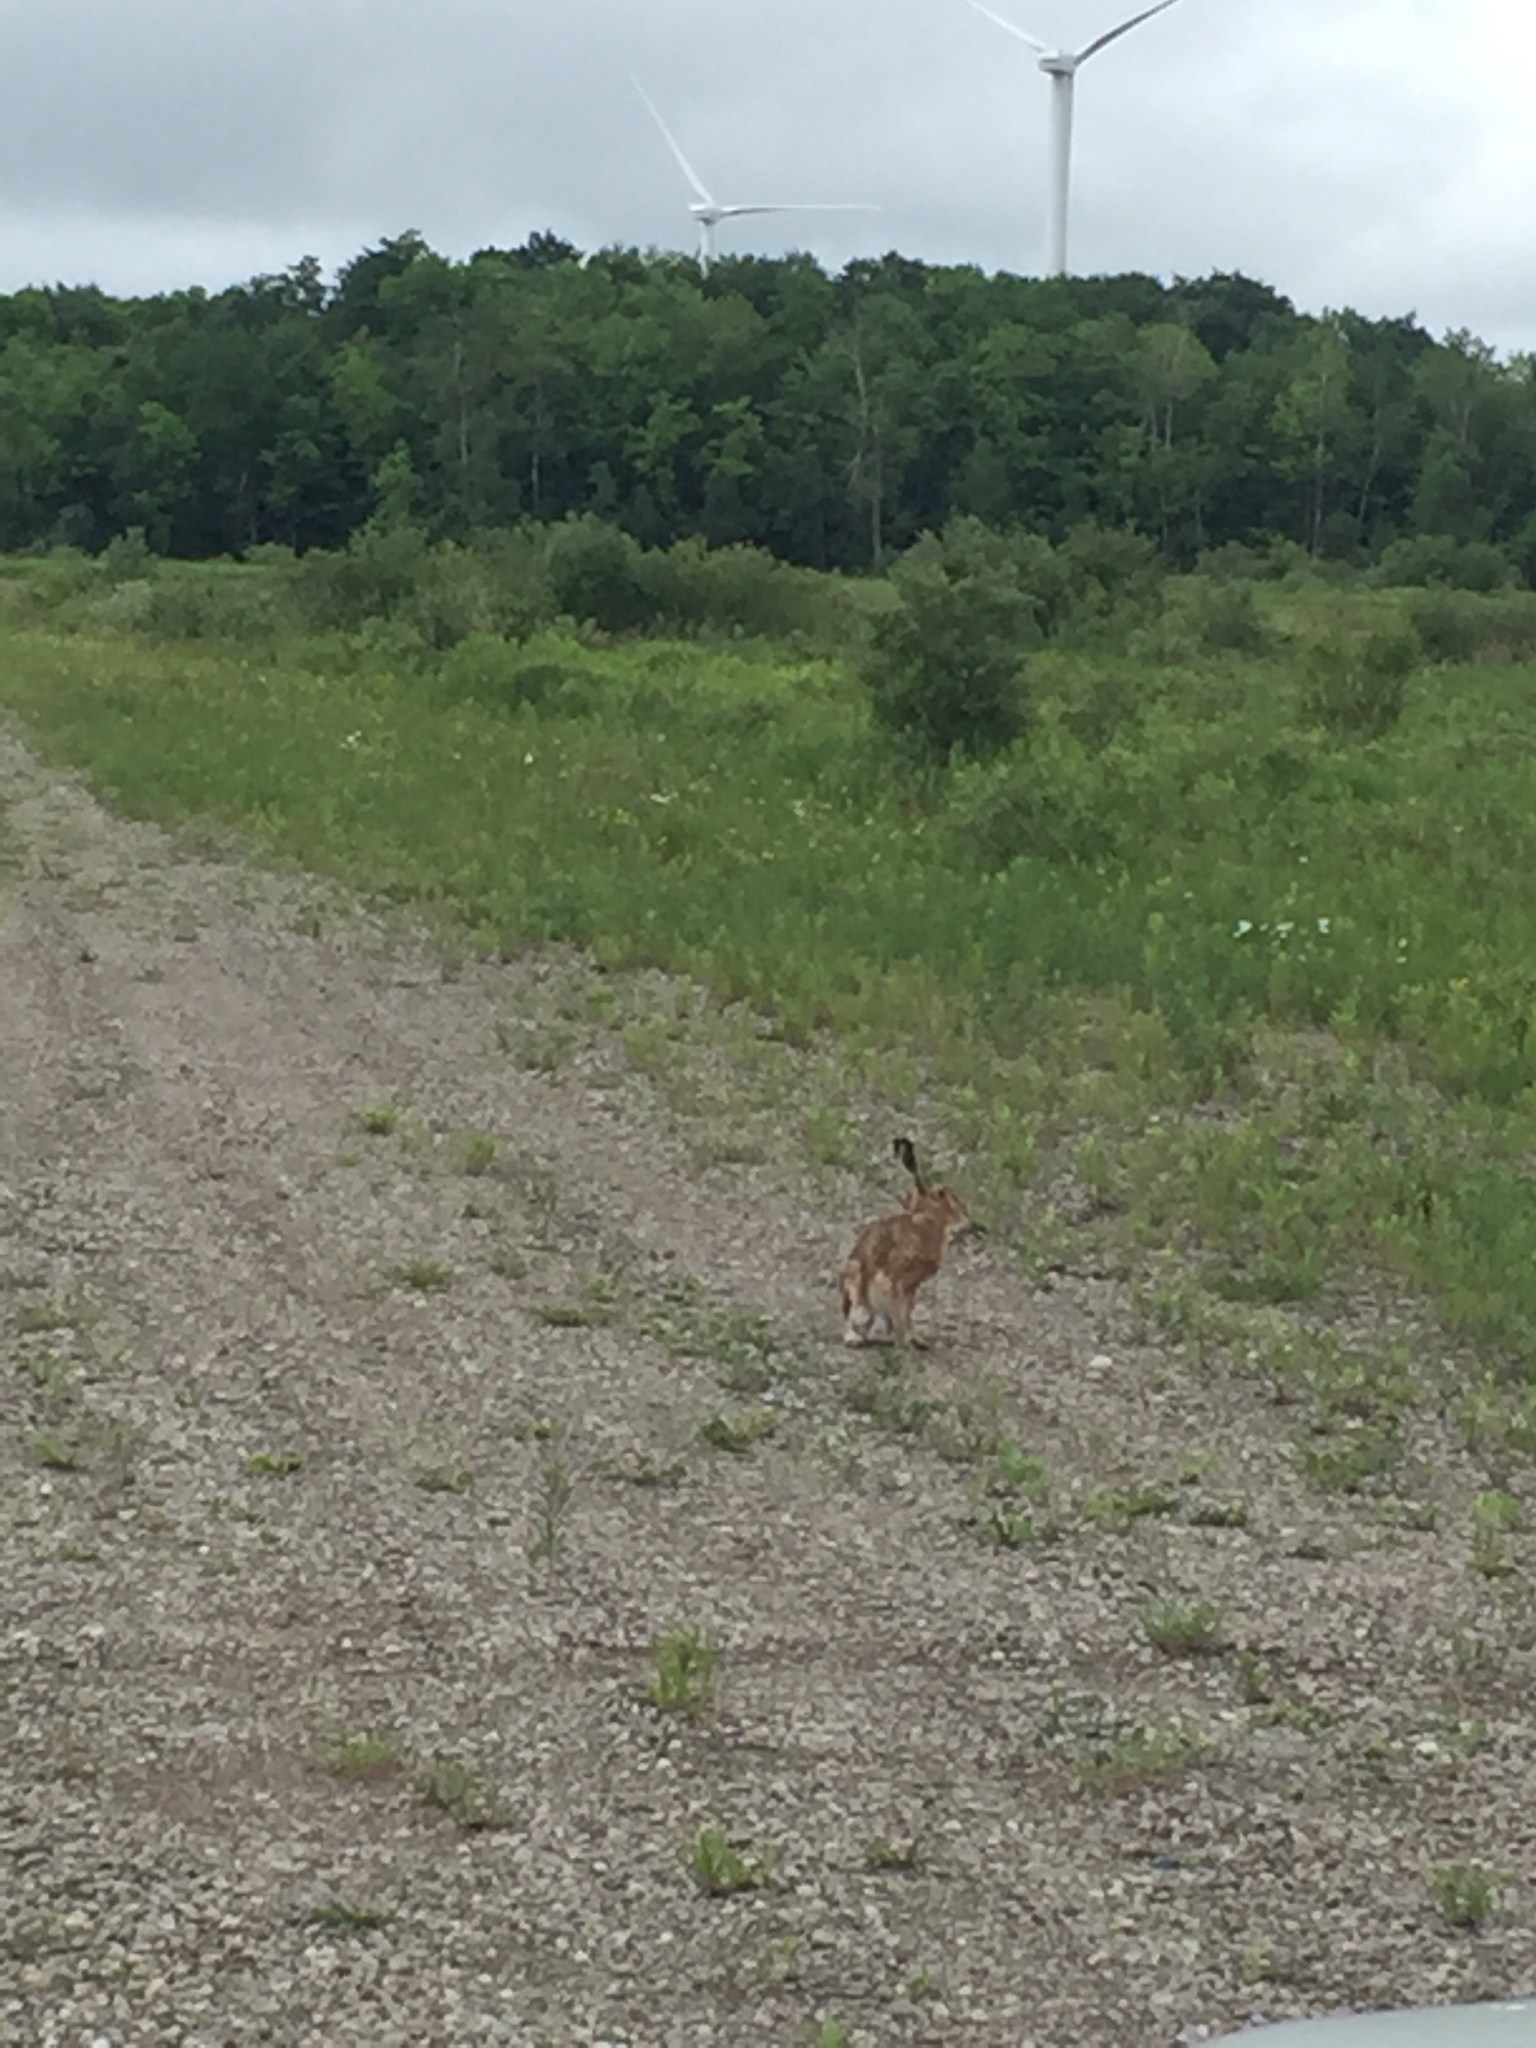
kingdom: Animalia
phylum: Chordata
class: Mammalia
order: Lagomorpha
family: Leporidae
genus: Lepus
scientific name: Lepus europaeus
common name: European hare
